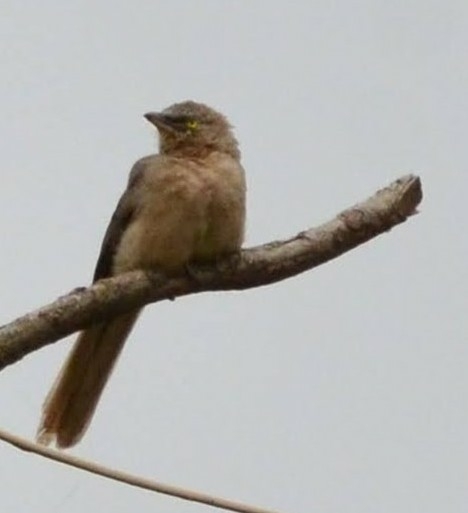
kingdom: Animalia
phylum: Chordata
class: Aves
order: Passeriformes
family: Leiothrichidae
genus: Turdoides
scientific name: Turdoides malcolmi
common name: Large grey babbler
